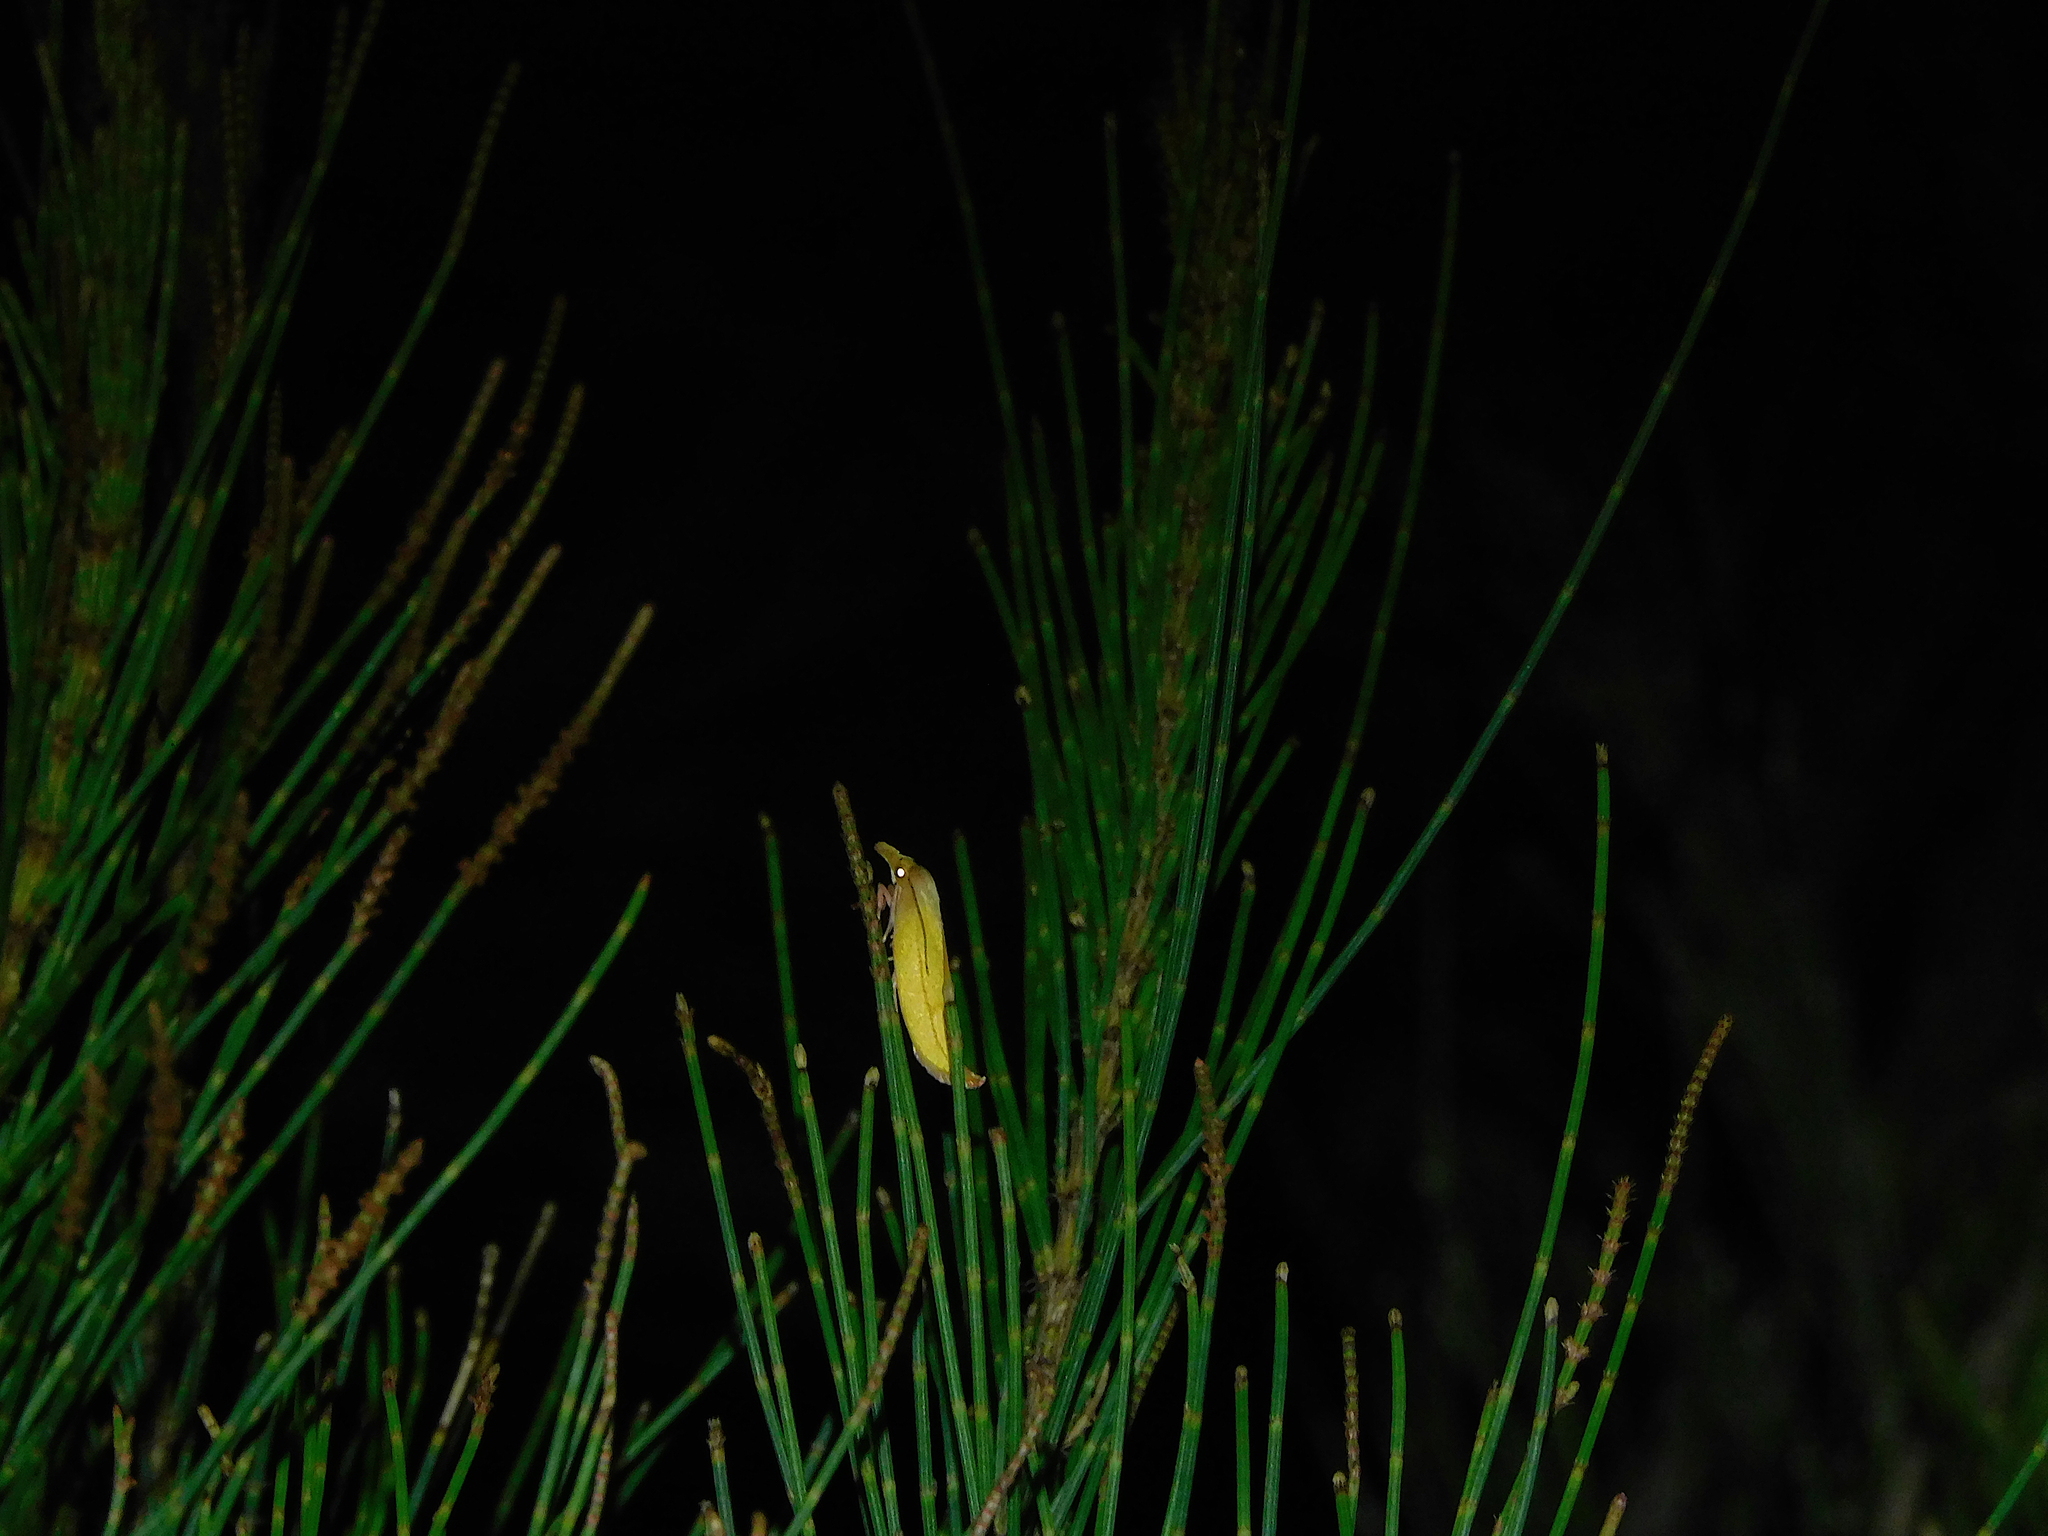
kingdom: Animalia
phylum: Arthropoda
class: Insecta
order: Lepidoptera
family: Oecophoridae
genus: Wingia
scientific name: Wingia aurata
